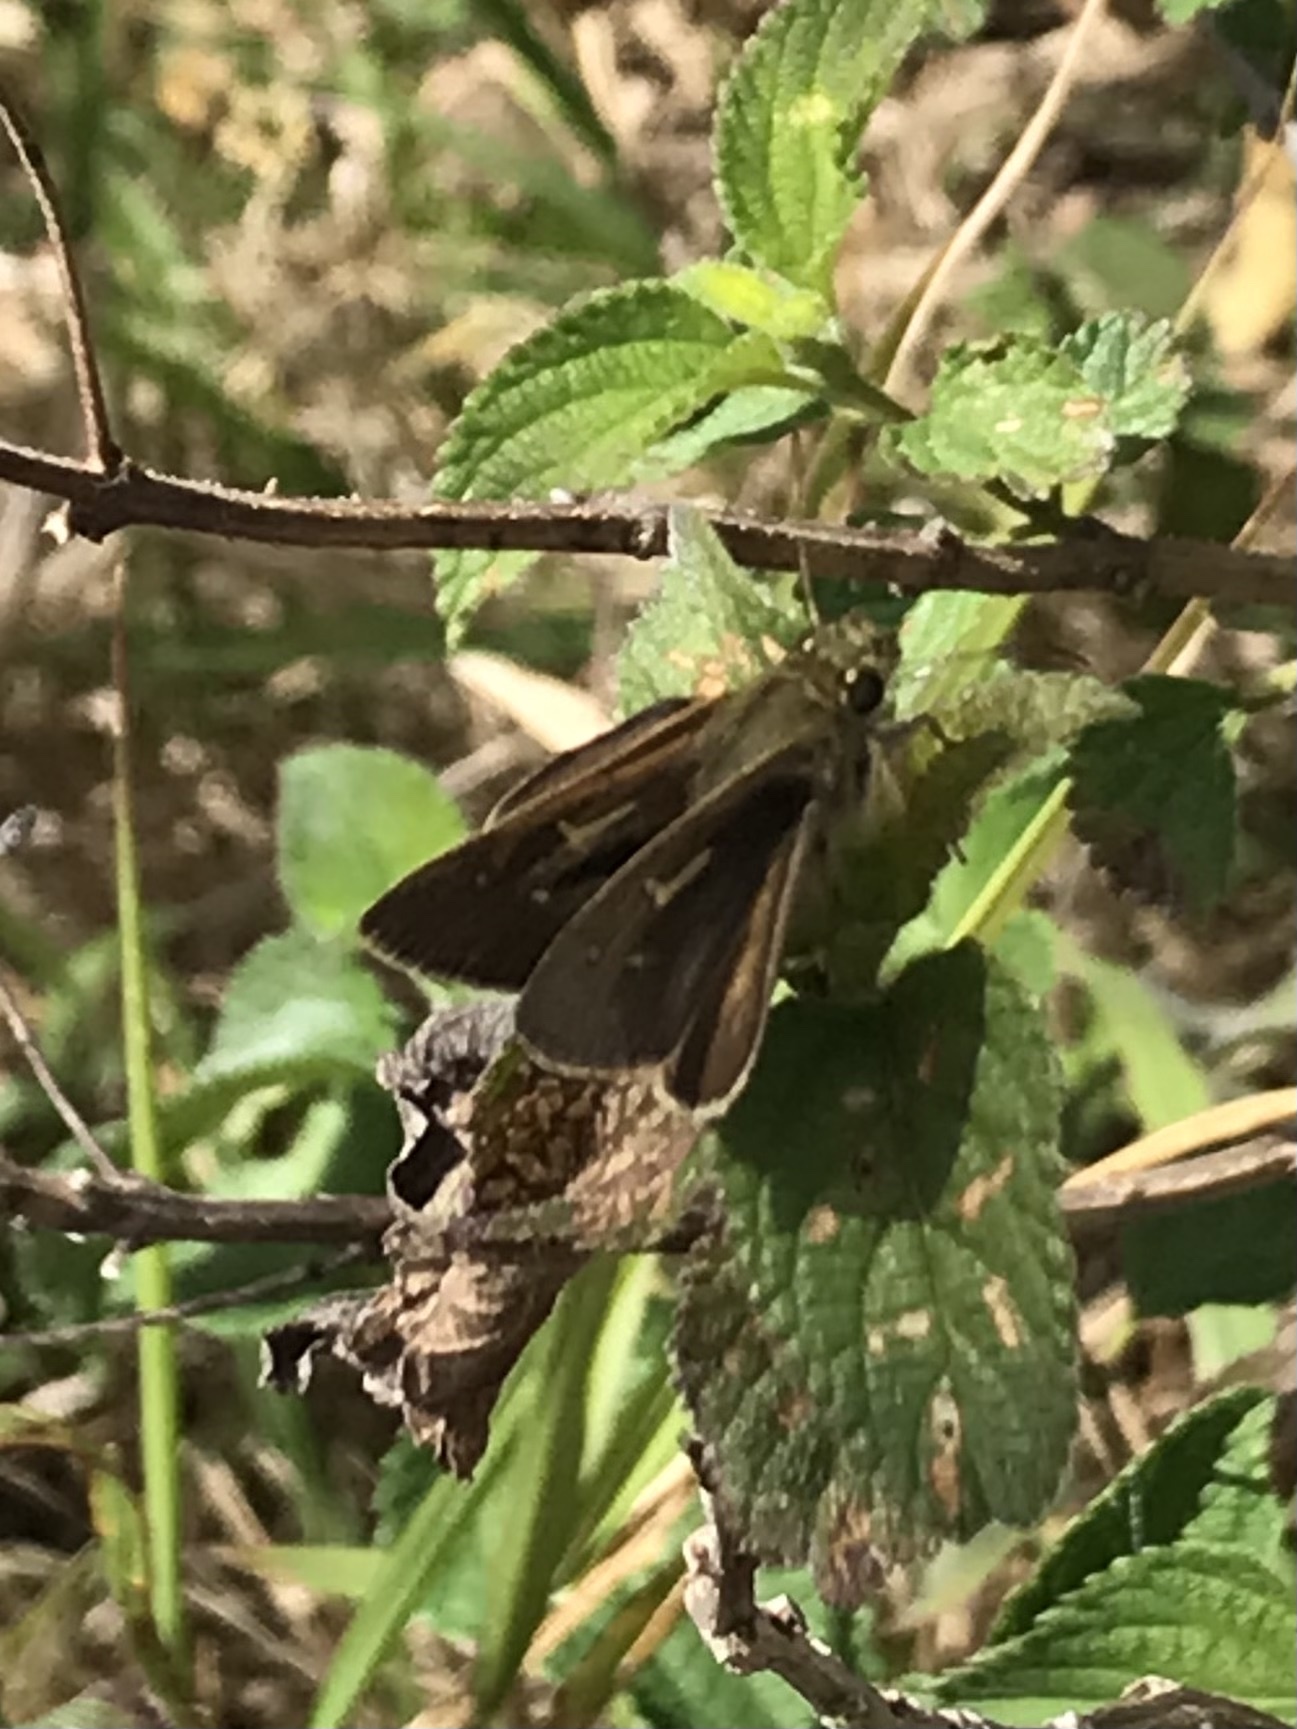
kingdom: Animalia
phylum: Arthropoda
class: Insecta
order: Lepidoptera
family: Hesperiidae
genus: Toxidia
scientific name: Toxidia
